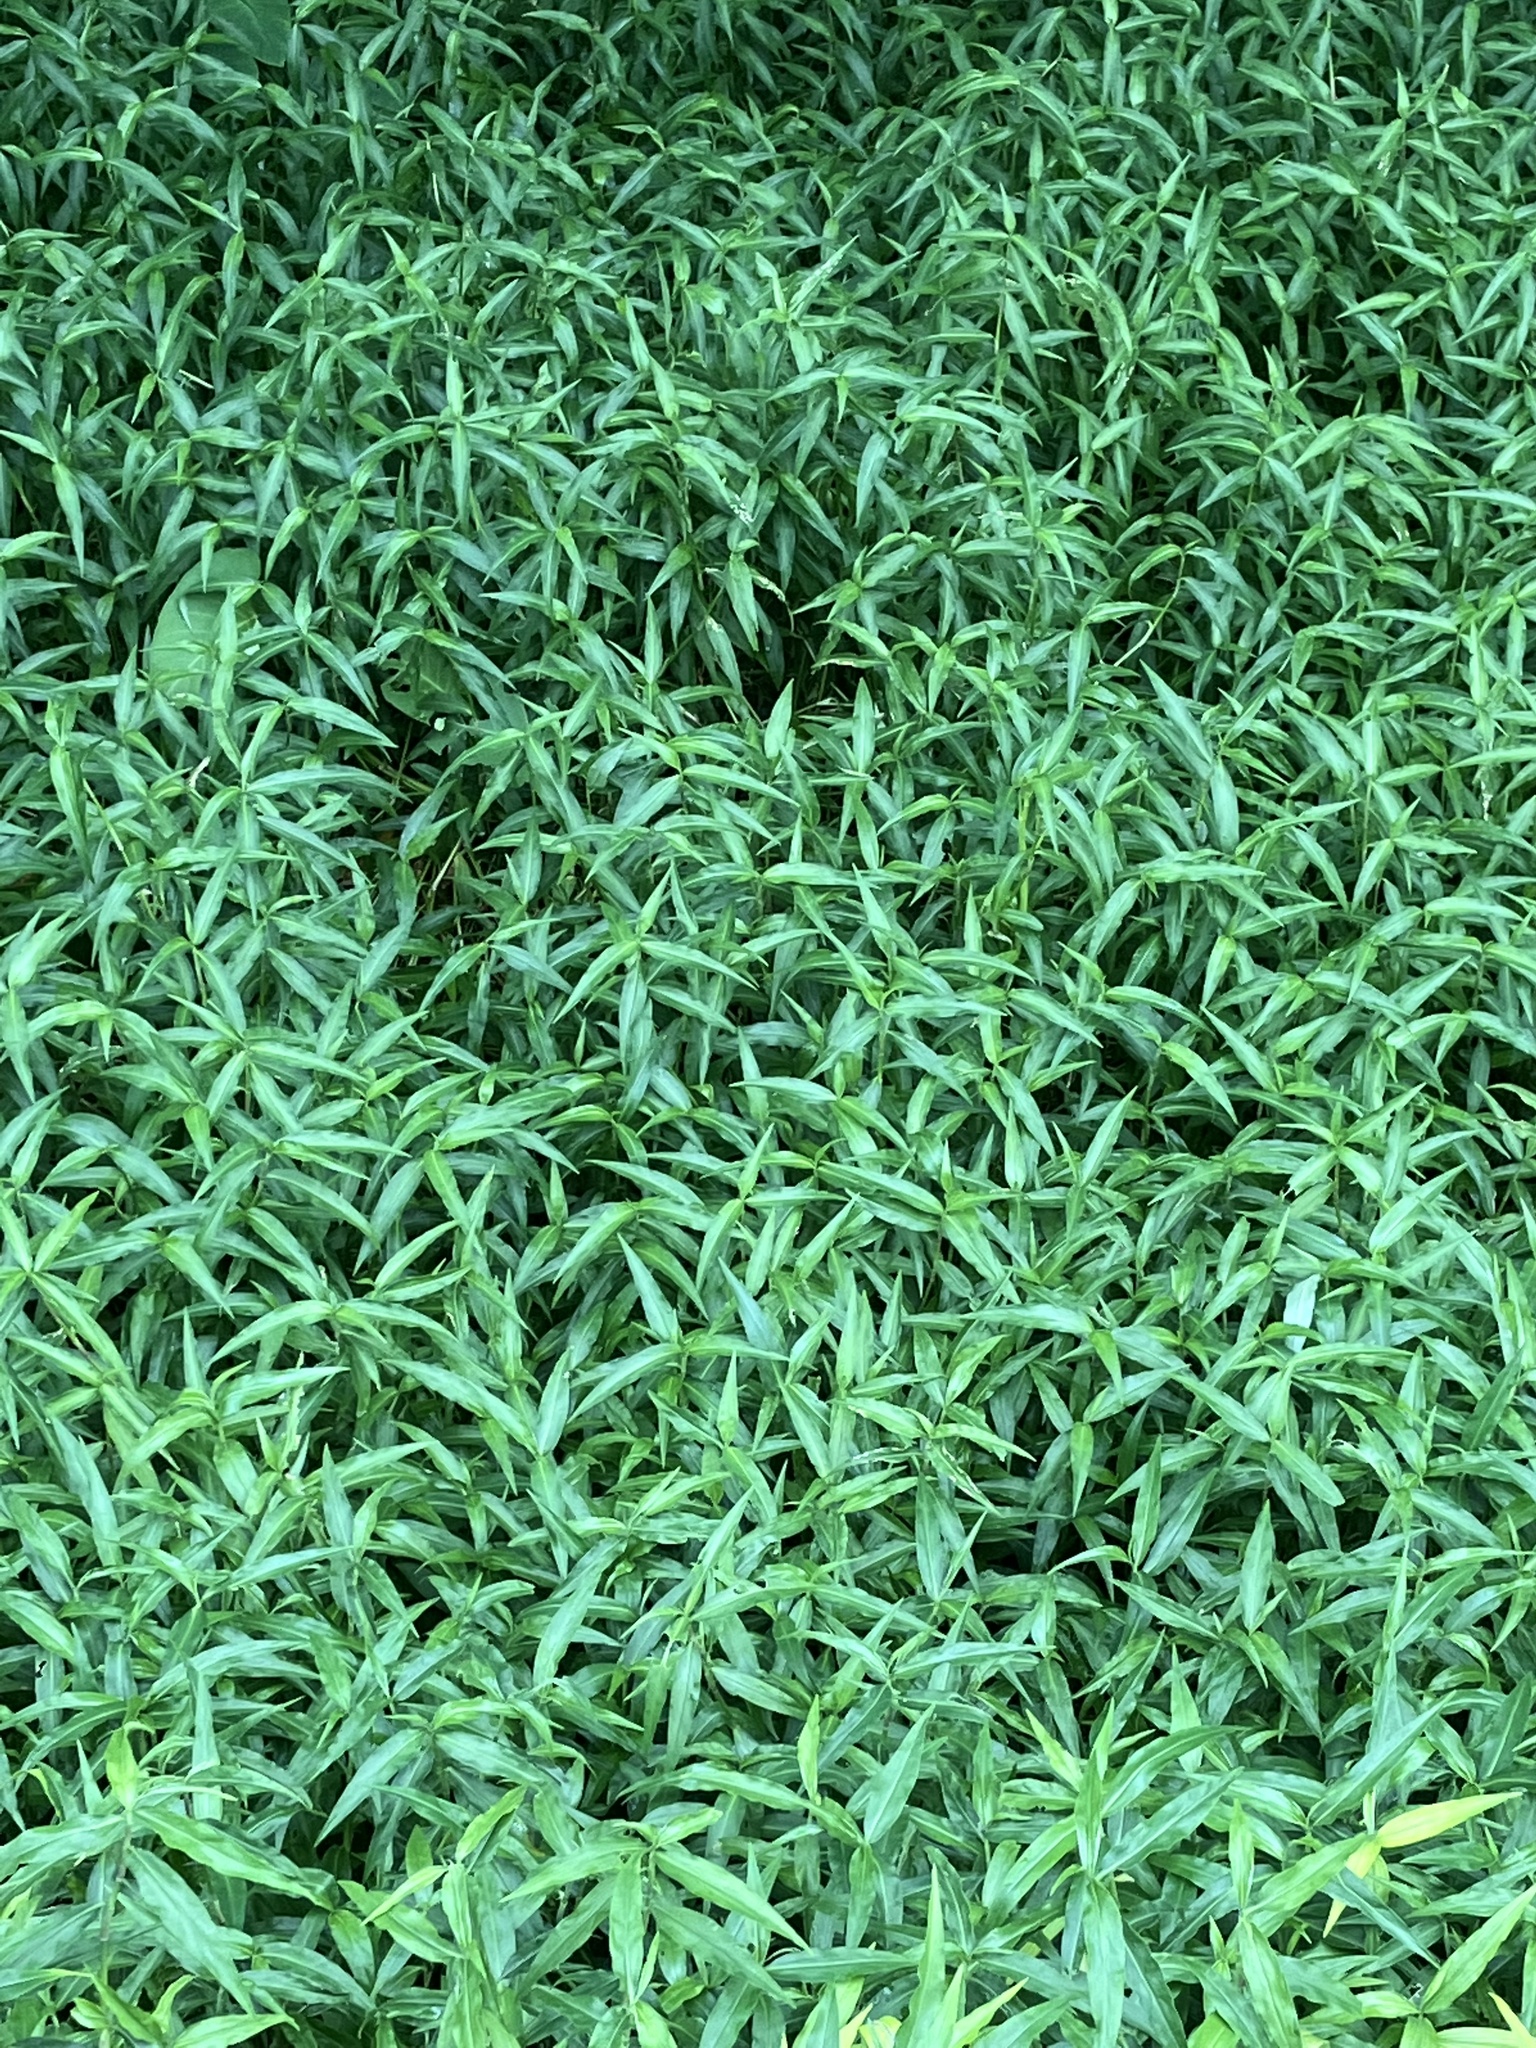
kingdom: Plantae
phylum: Tracheophyta
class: Liliopsida
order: Commelinales
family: Commelinaceae
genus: Commelina
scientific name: Commelina diffusa
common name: Climbing dayflower
